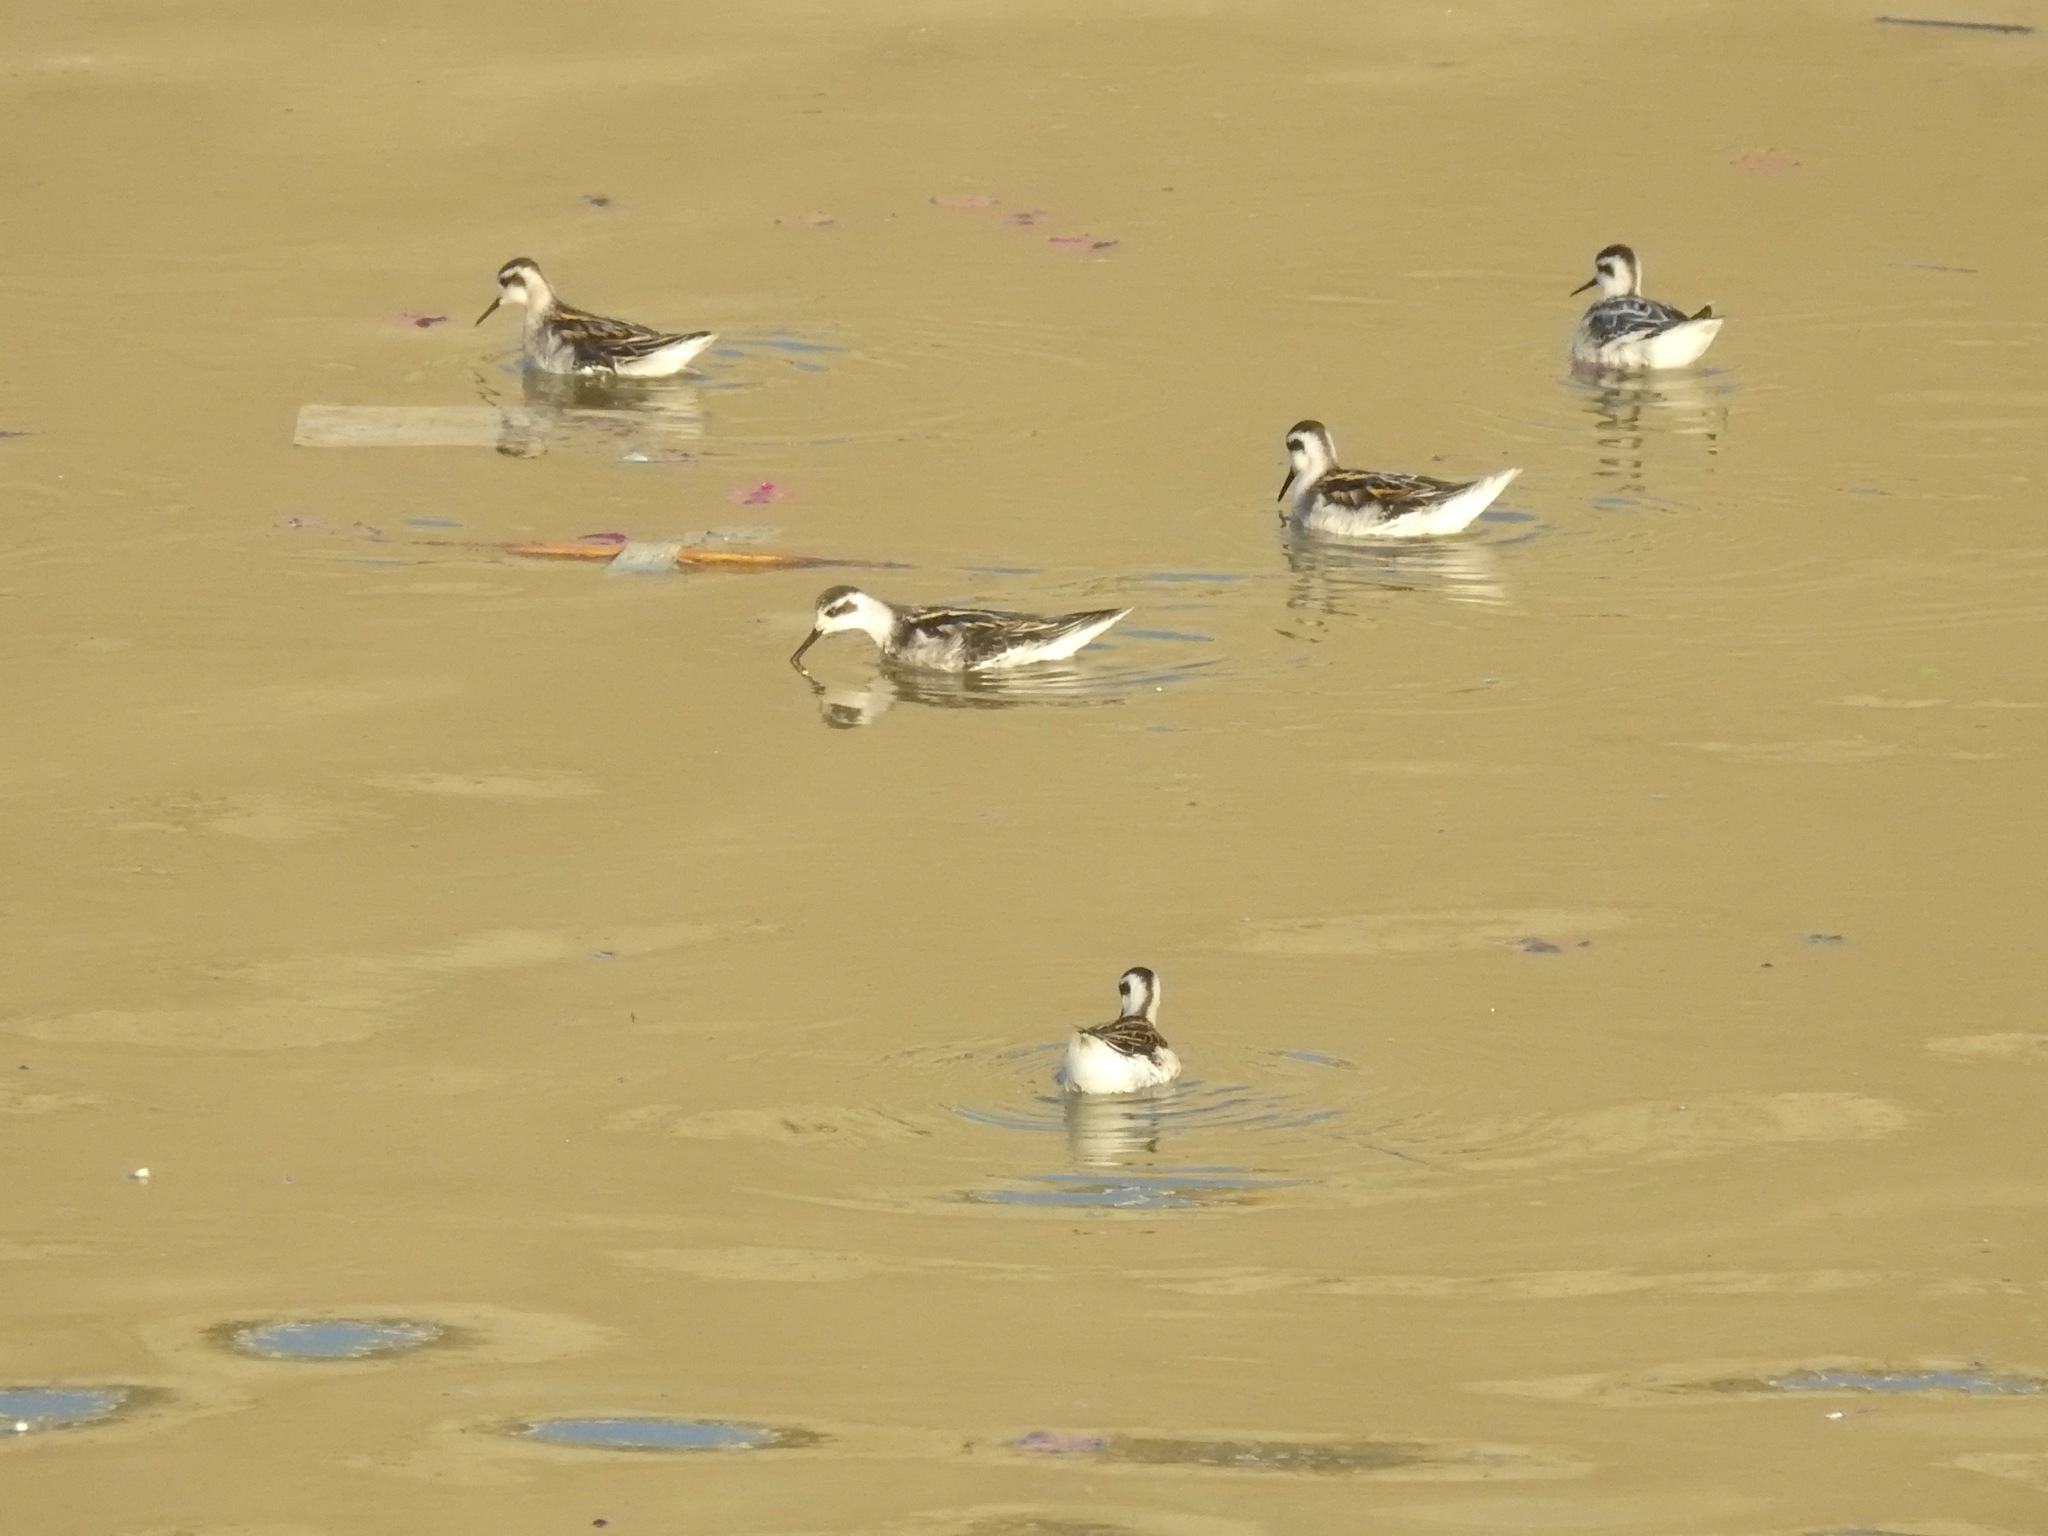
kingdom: Animalia
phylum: Chordata
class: Aves
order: Charadriiformes
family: Scolopacidae
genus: Phalaropus
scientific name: Phalaropus lobatus
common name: Red-necked phalarope
